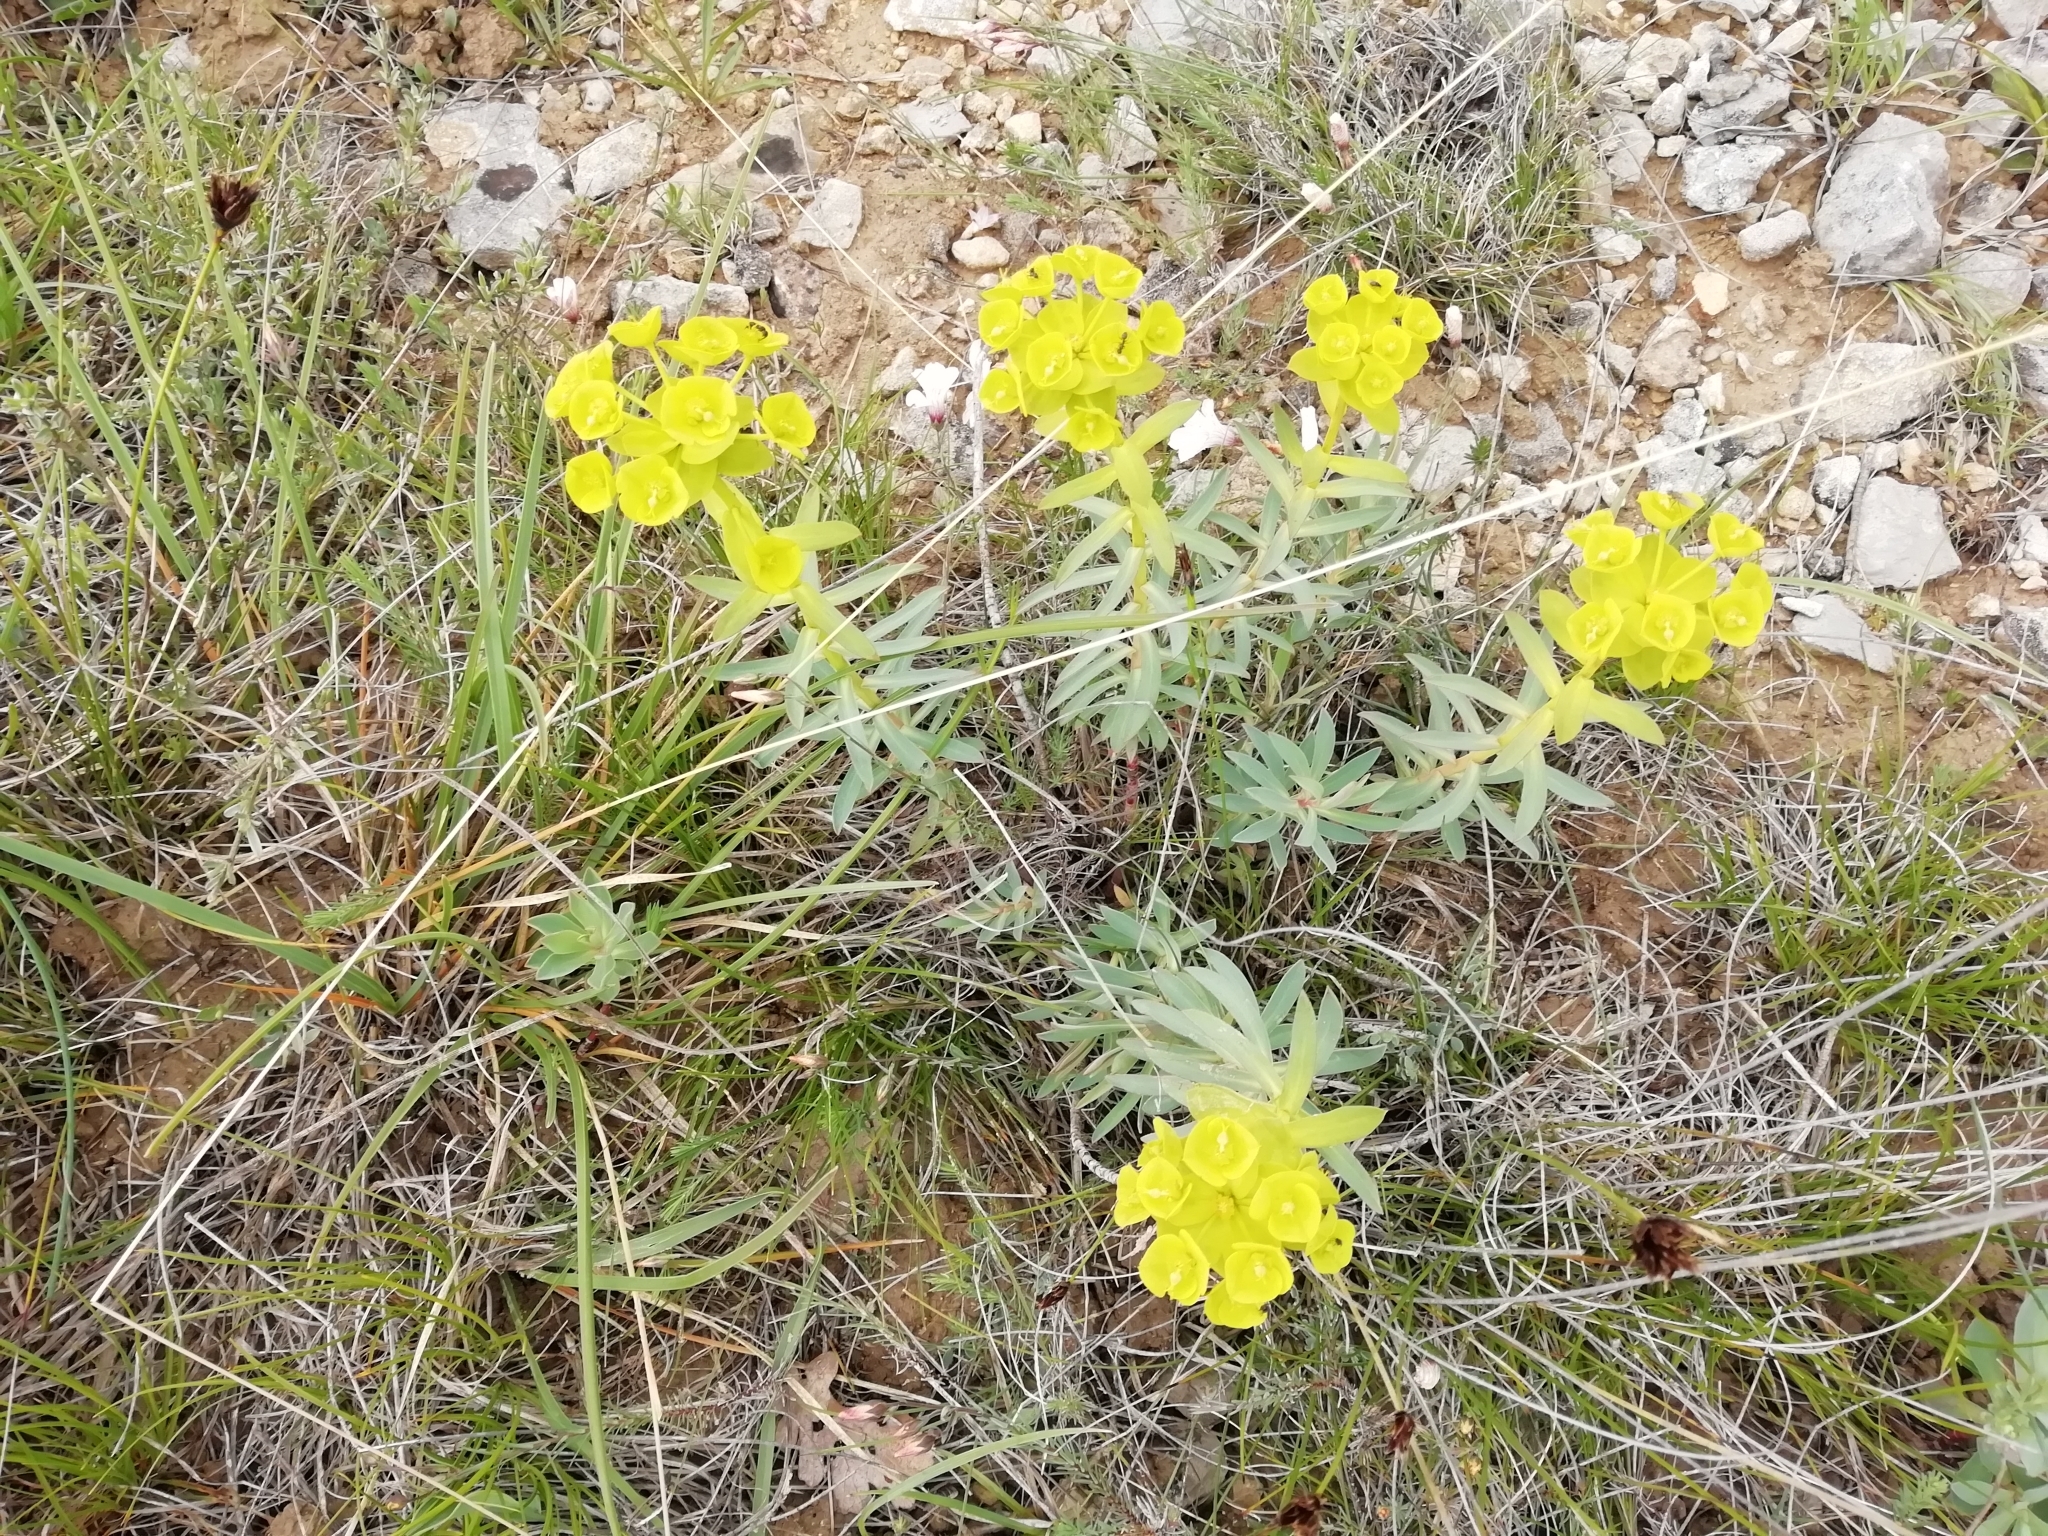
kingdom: Plantae
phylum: Tracheophyta
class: Magnoliopsida
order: Malpighiales
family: Euphorbiaceae
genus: Euphorbia
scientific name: Euphorbia nicaeensis
